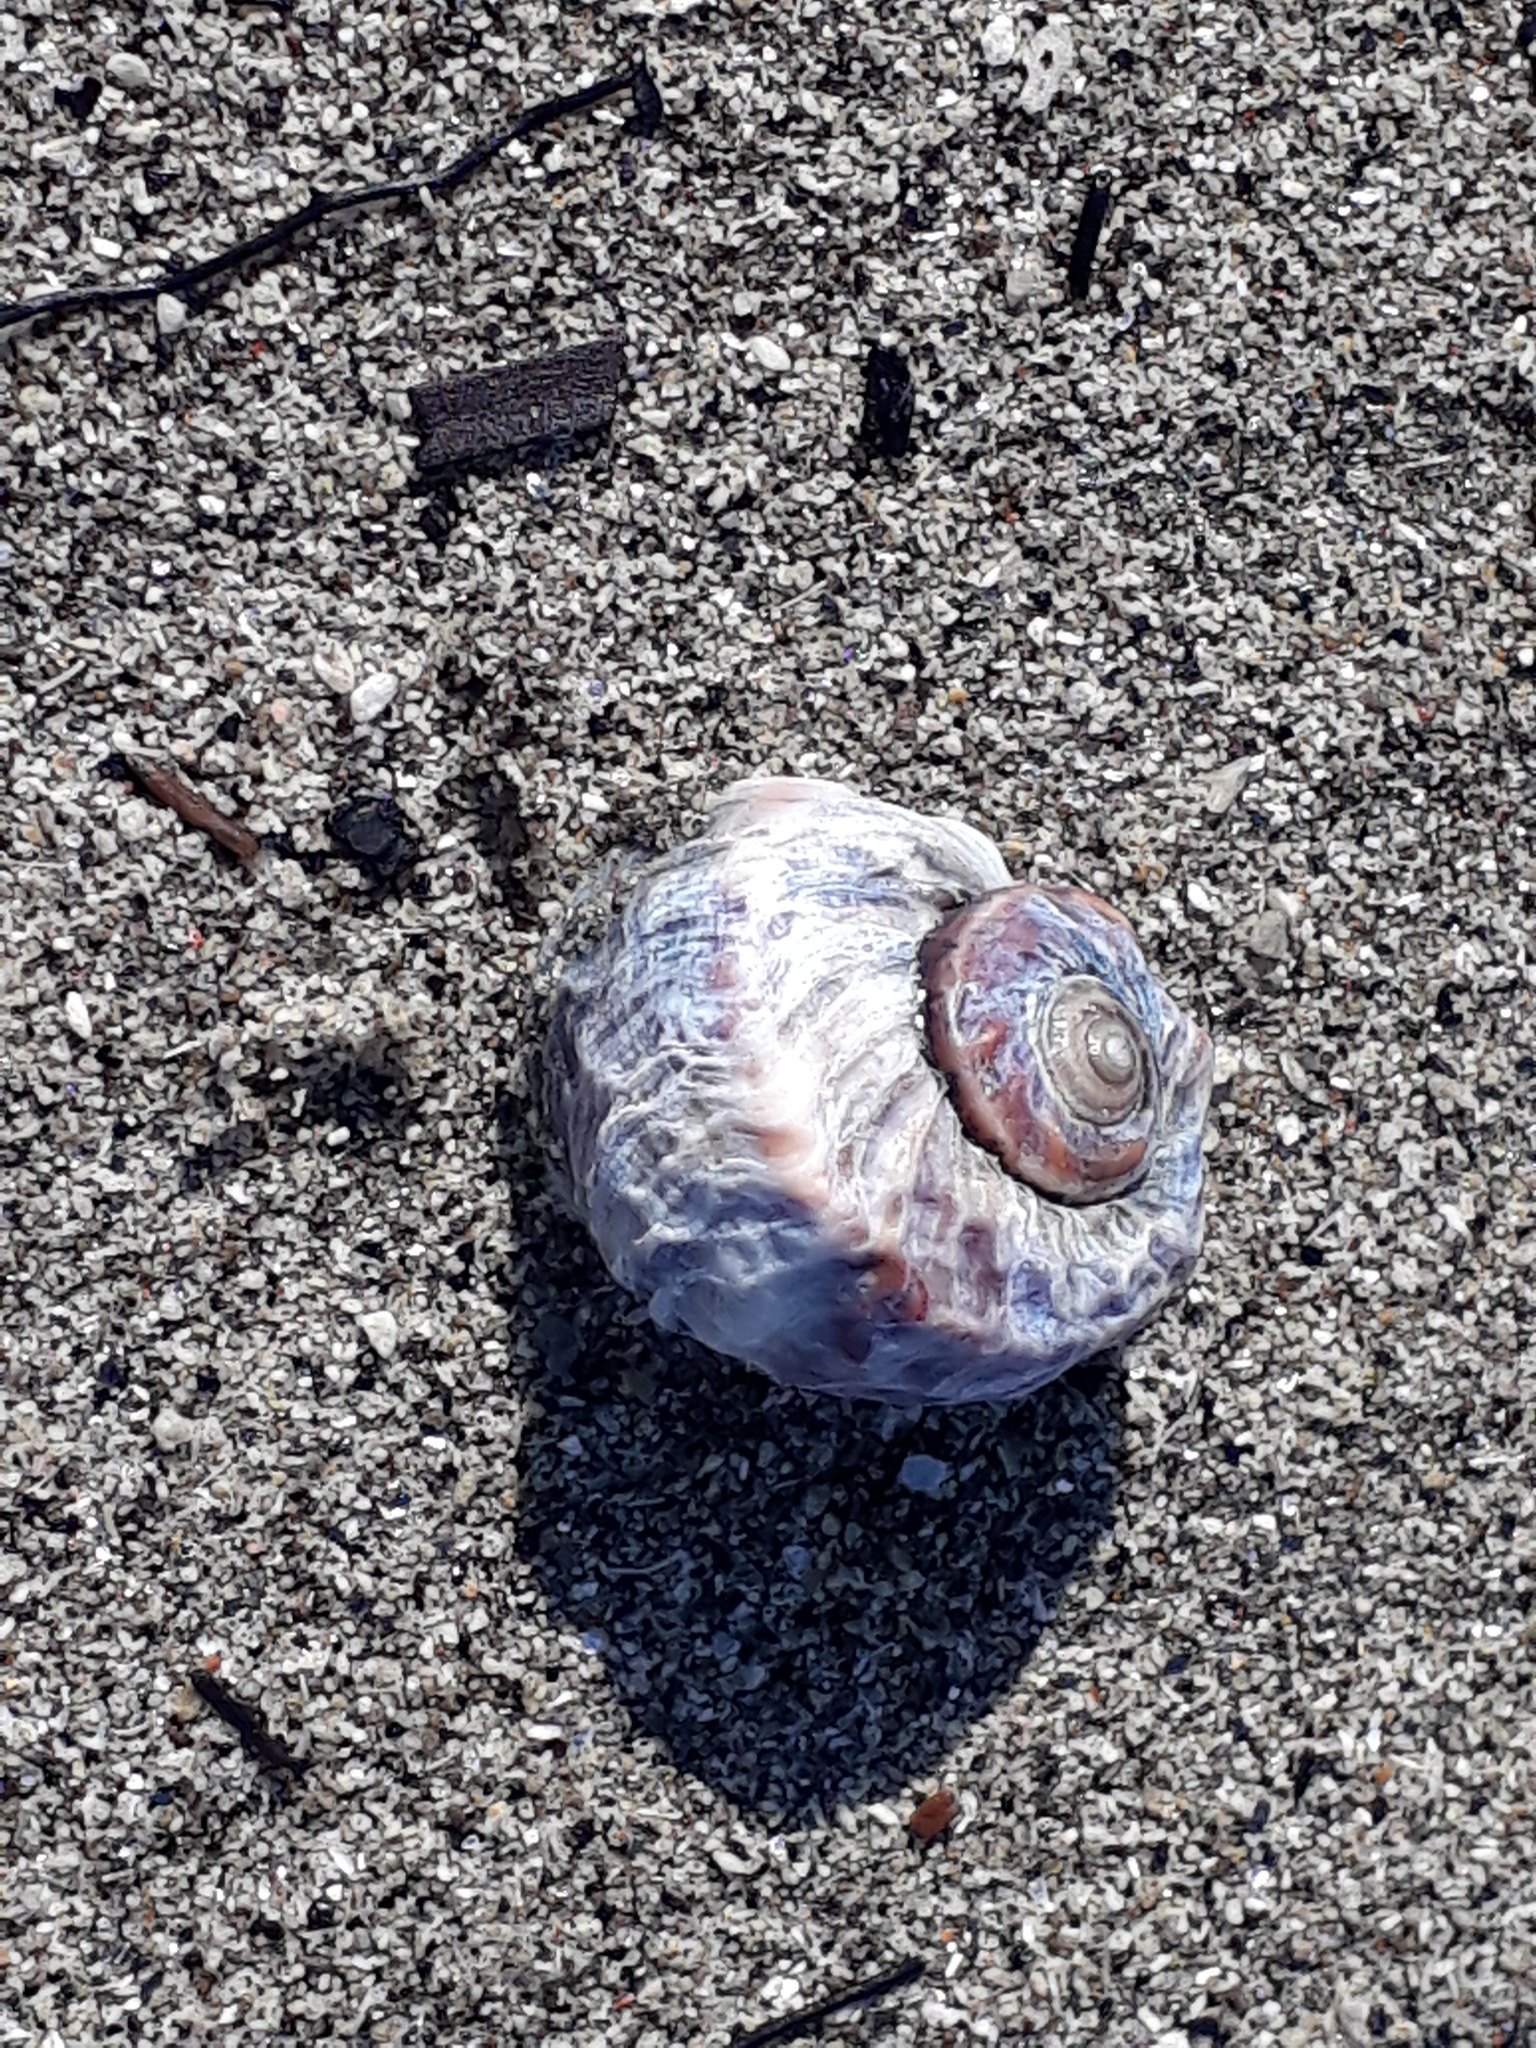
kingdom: Animalia
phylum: Mollusca
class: Gastropoda
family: Amphibolidae
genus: Amphibola
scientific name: Amphibola crenata
